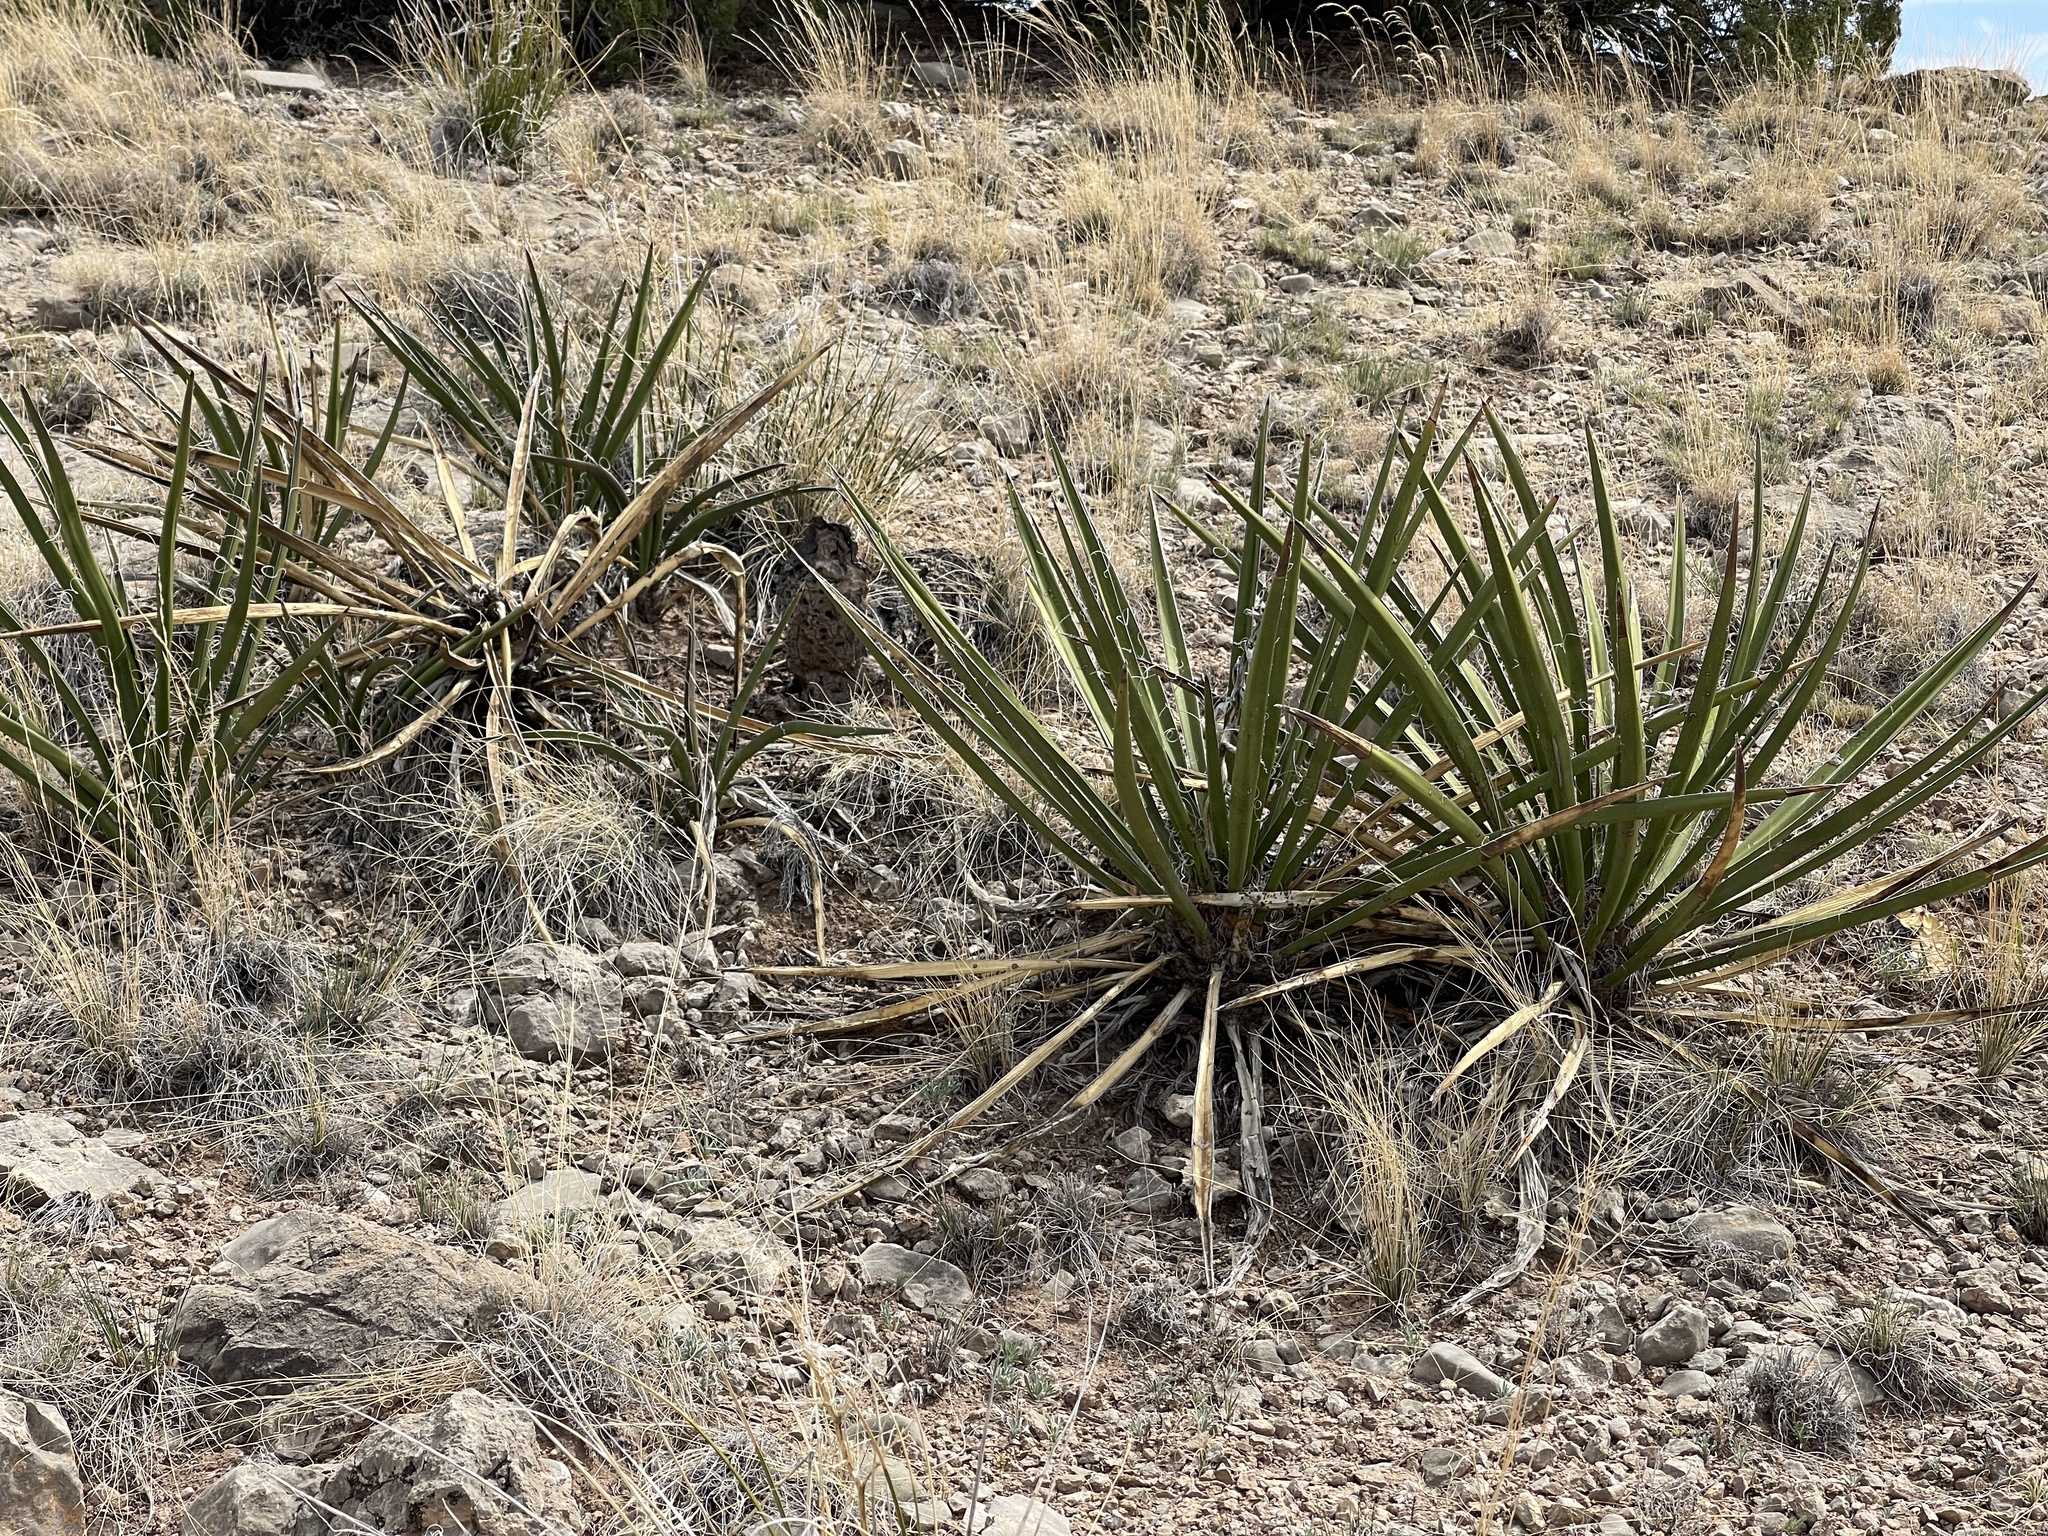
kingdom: Plantae
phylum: Tracheophyta
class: Liliopsida
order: Asparagales
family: Asparagaceae
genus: Yucca
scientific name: Yucca baccata
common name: Banana yucca
